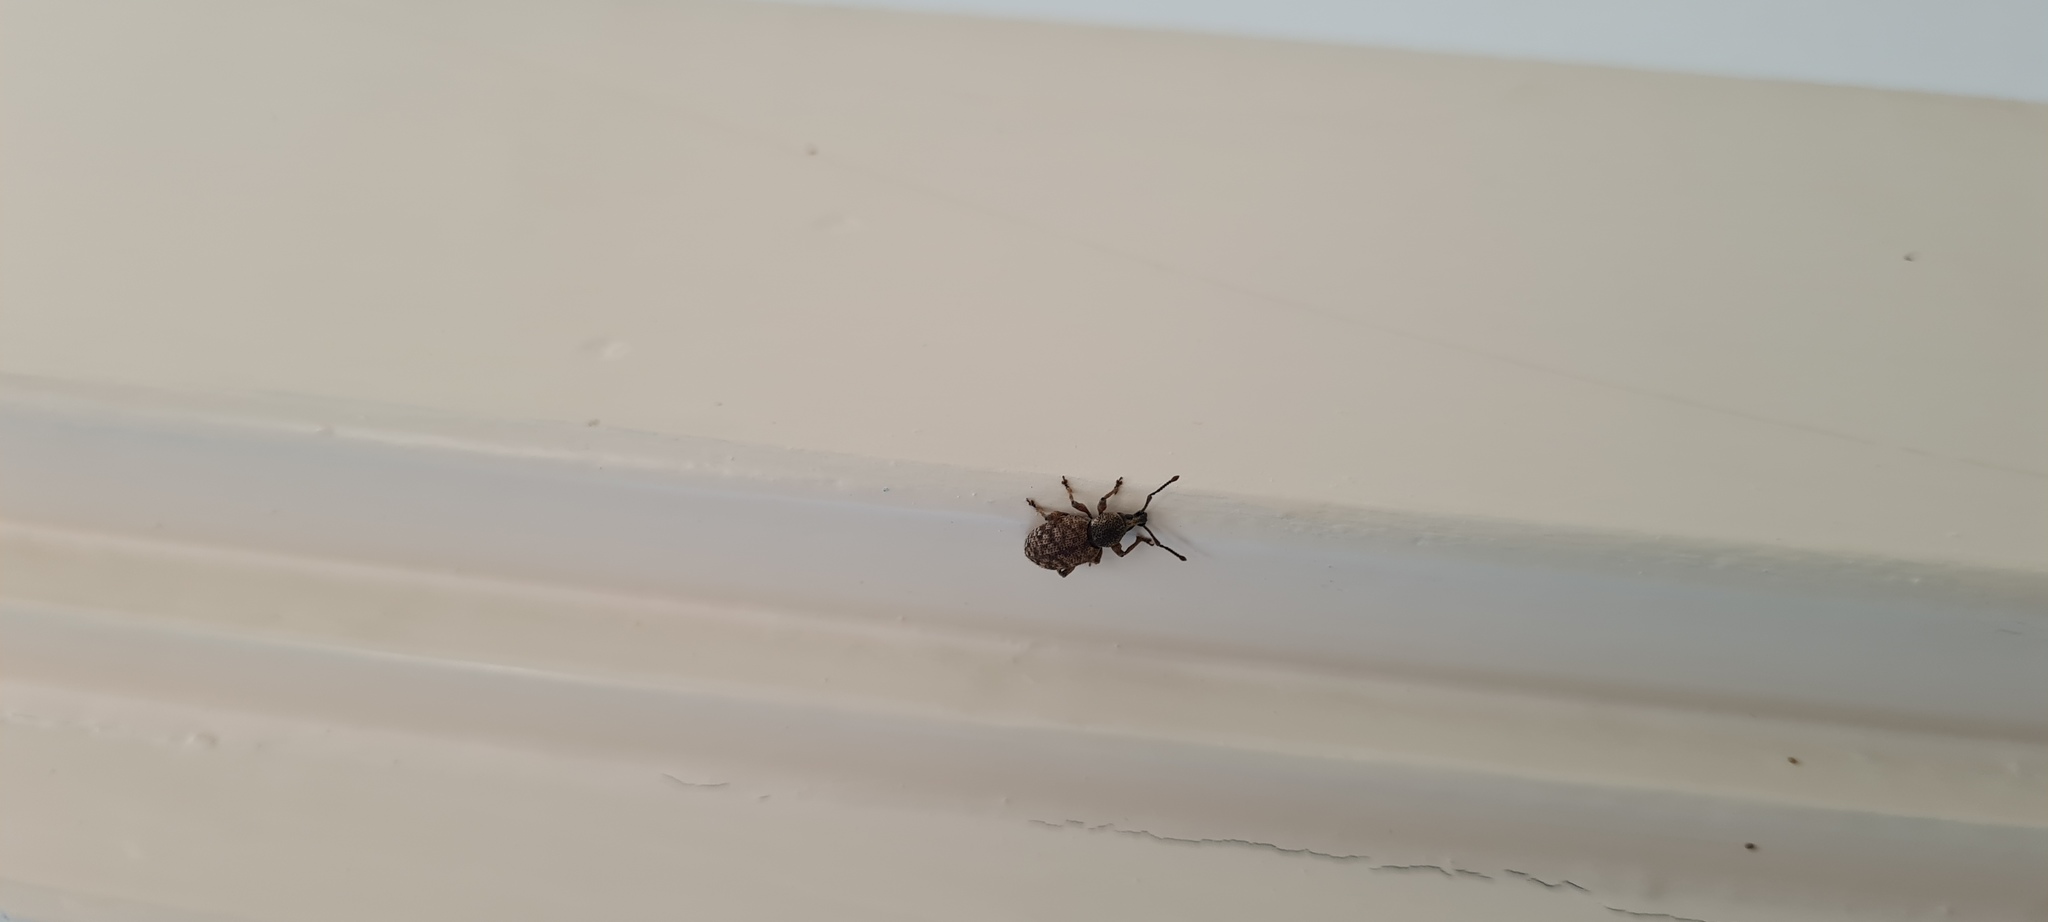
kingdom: Animalia
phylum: Arthropoda
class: Insecta
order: Coleoptera
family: Curculionidae
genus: Otiorhynchus
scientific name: Otiorhynchus singularis
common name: Clay-coloured weevil
